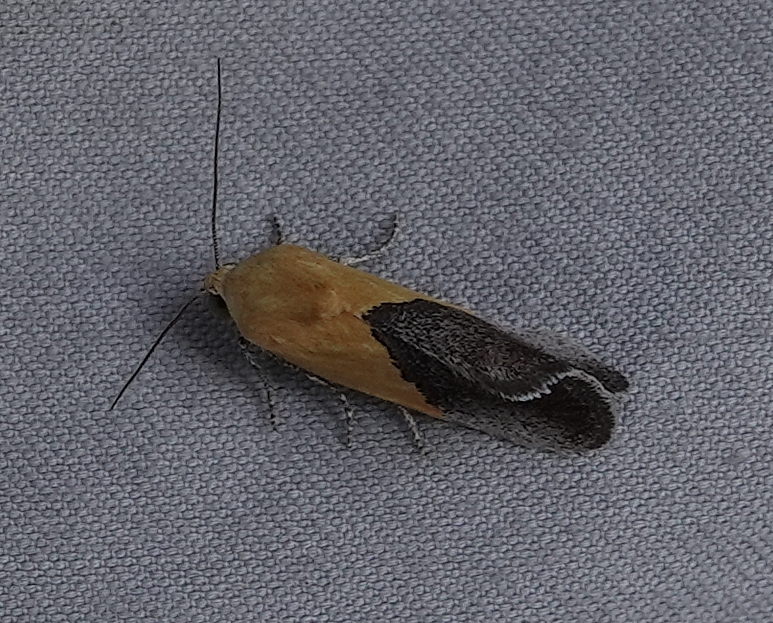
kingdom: Animalia
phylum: Arthropoda
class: Insecta
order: Lepidoptera
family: Noctuidae
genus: Acontia
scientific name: Acontia semiflava
